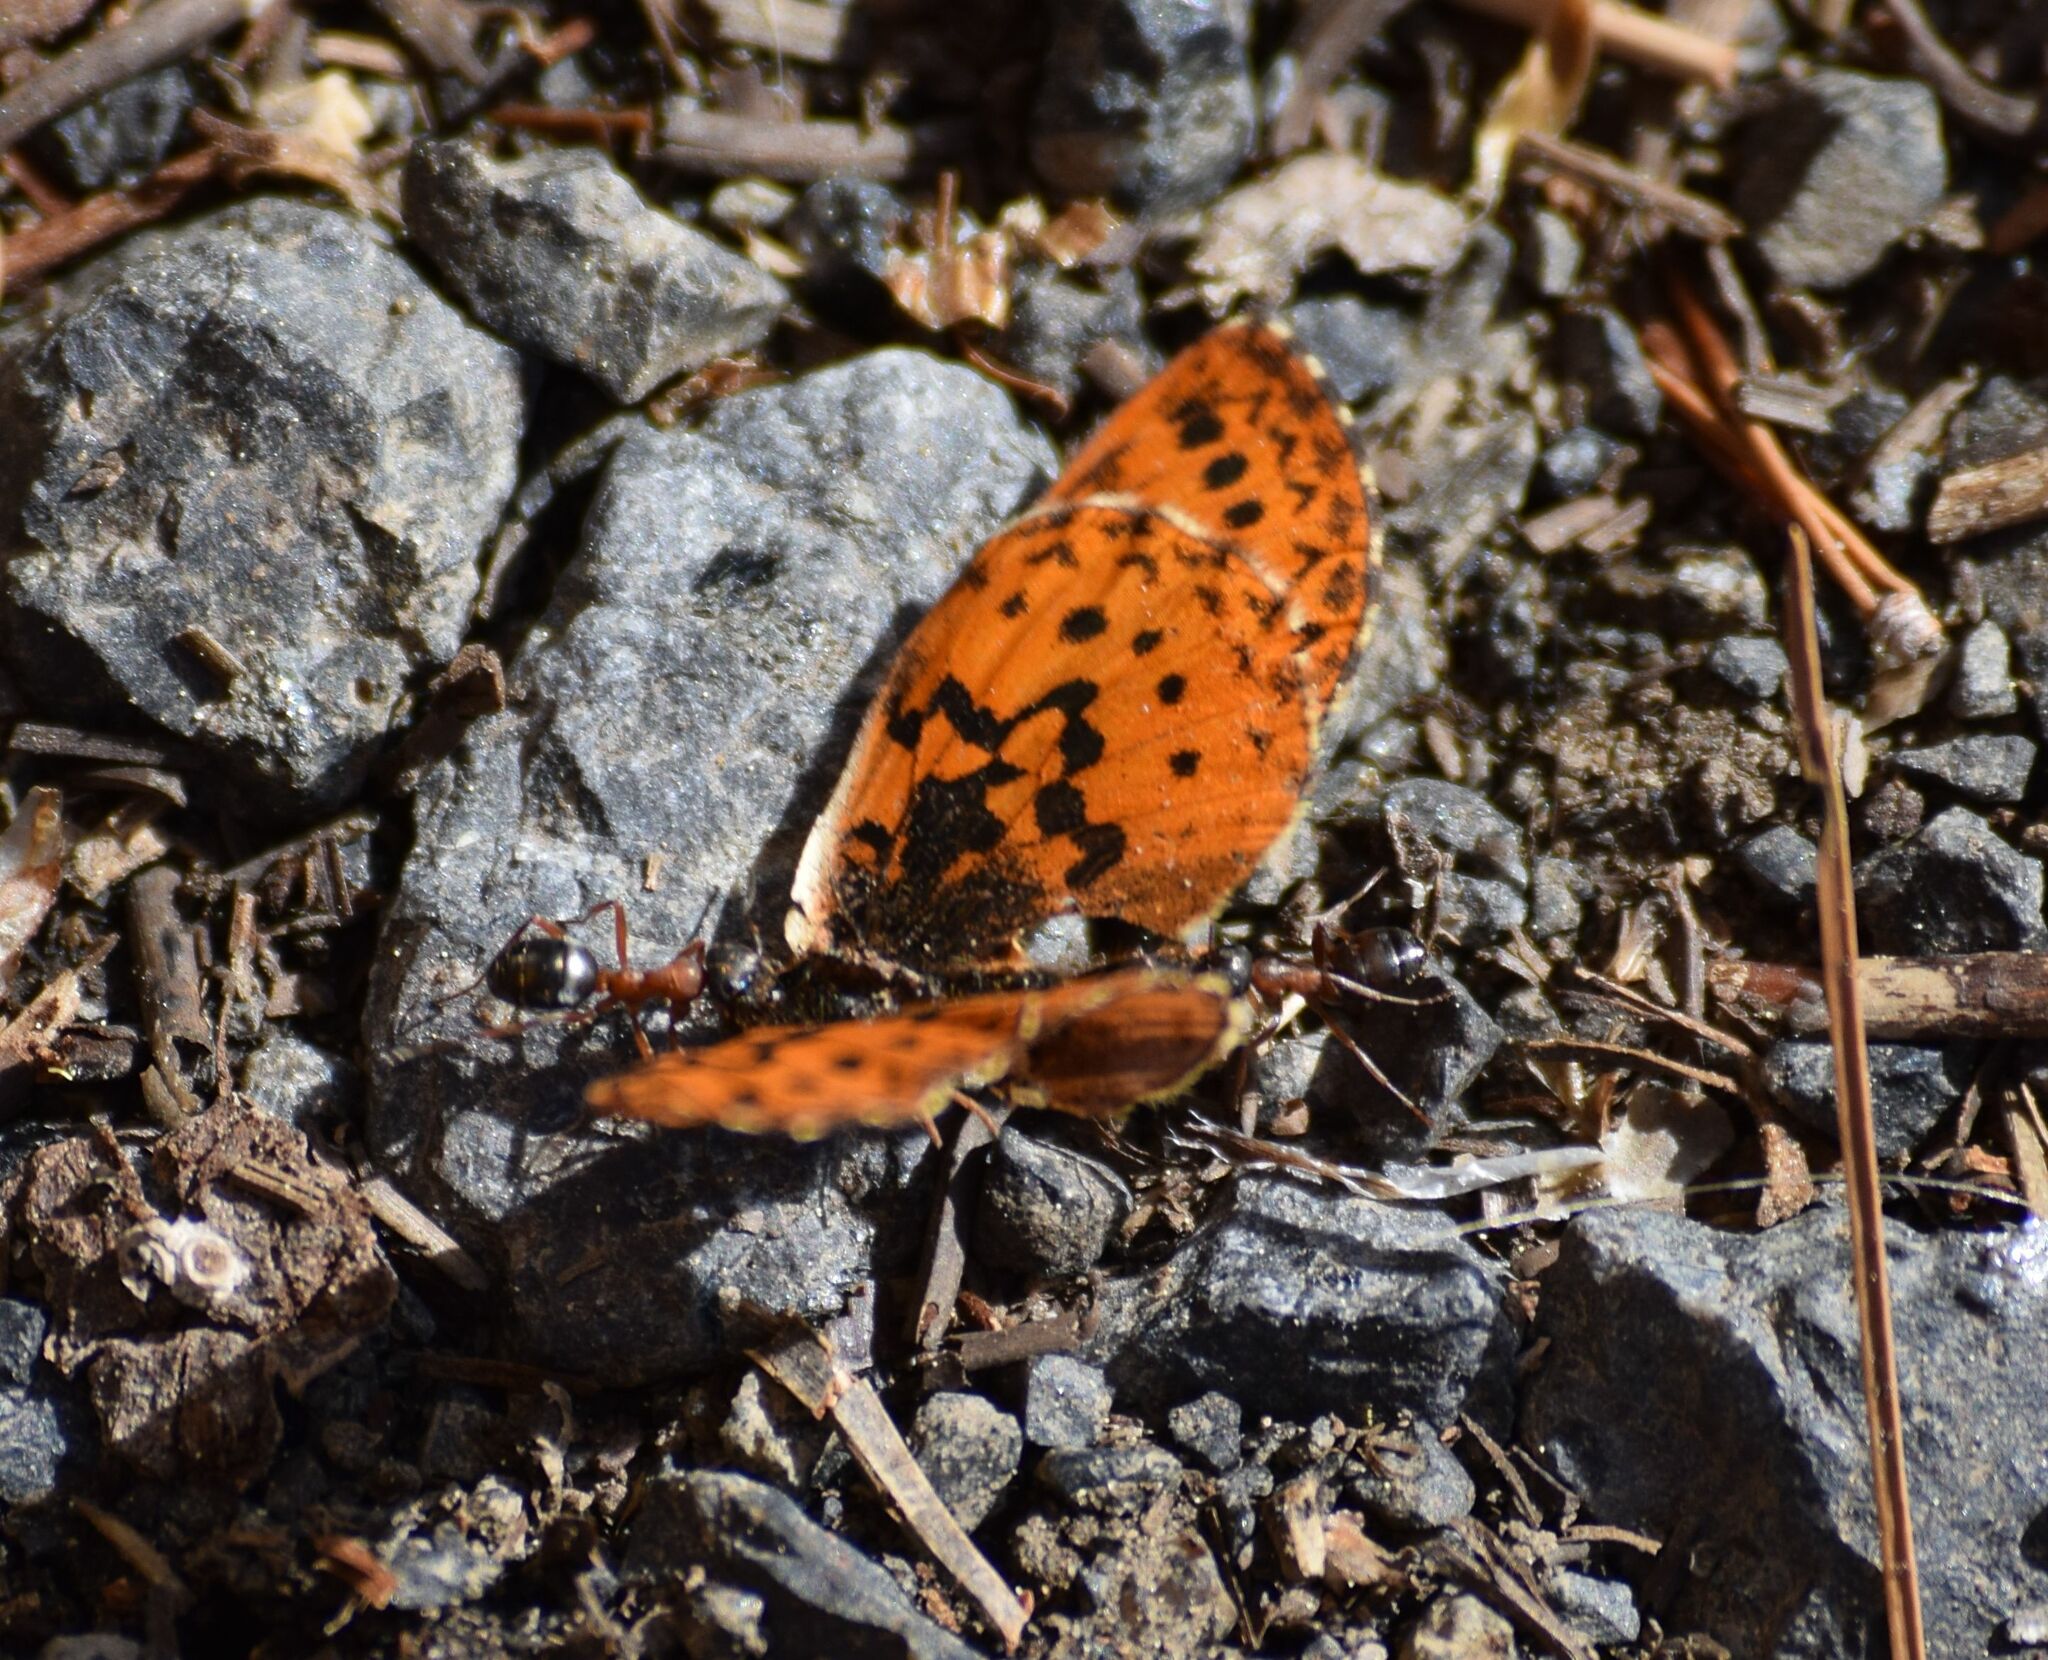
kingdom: Animalia
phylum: Arthropoda
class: Insecta
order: Hymenoptera
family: Formicidae
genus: Formica
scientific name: Formica
